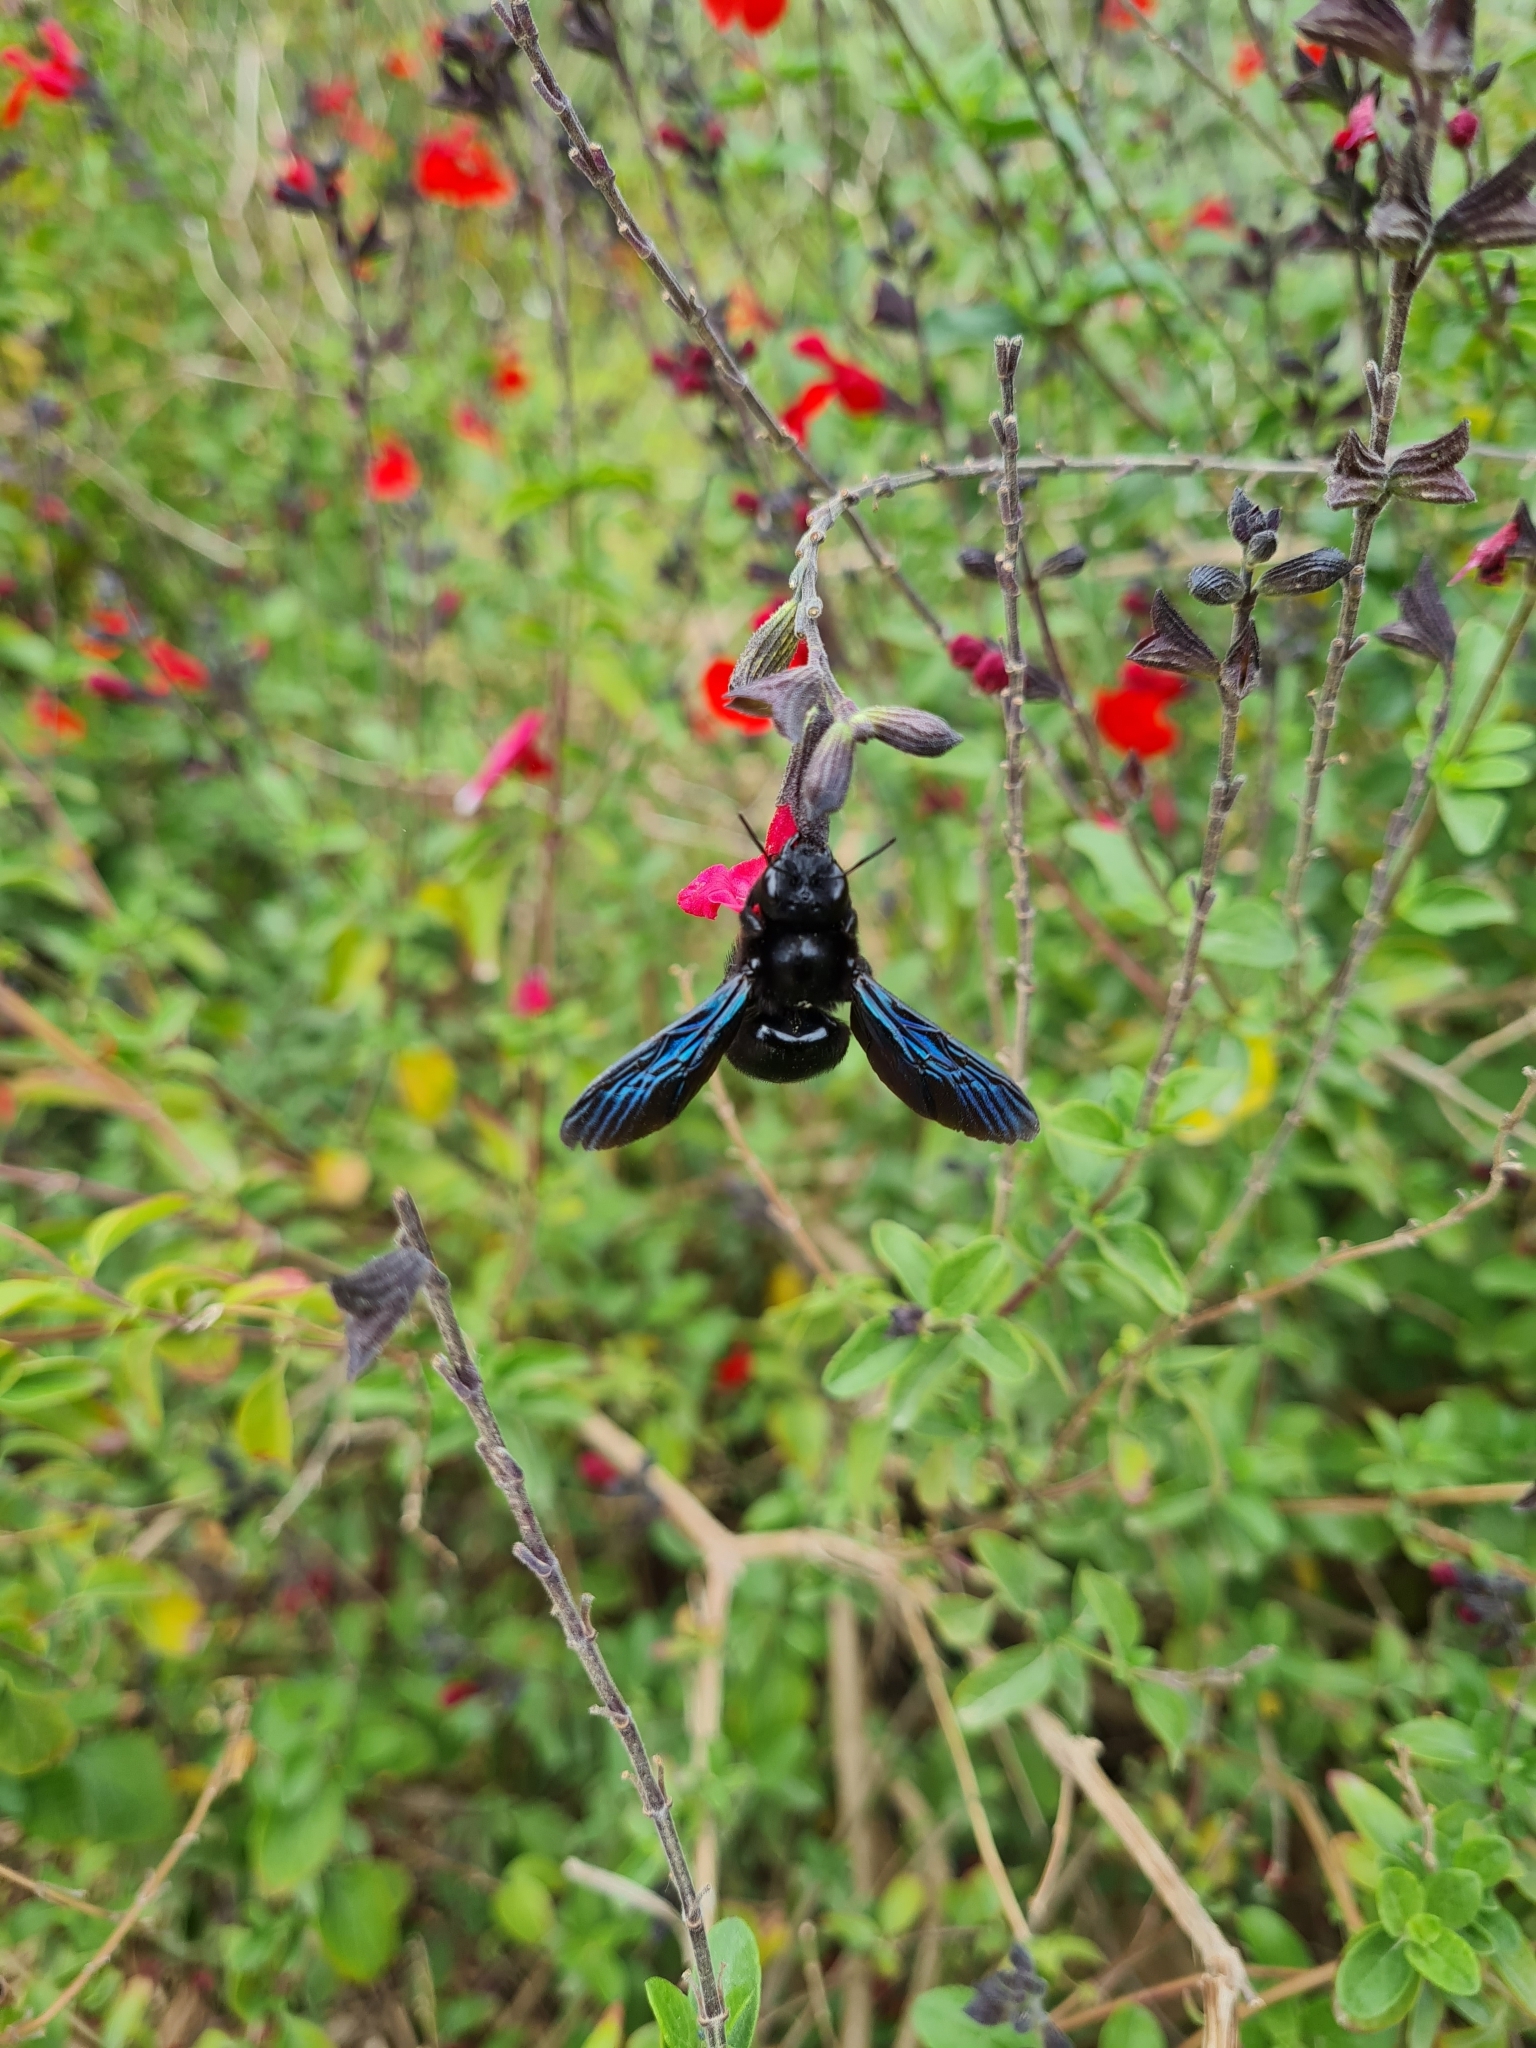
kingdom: Animalia
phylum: Arthropoda
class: Insecta
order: Hymenoptera
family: Apidae
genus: Xylocopa
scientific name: Xylocopa violacea
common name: Violet carpenter bee
